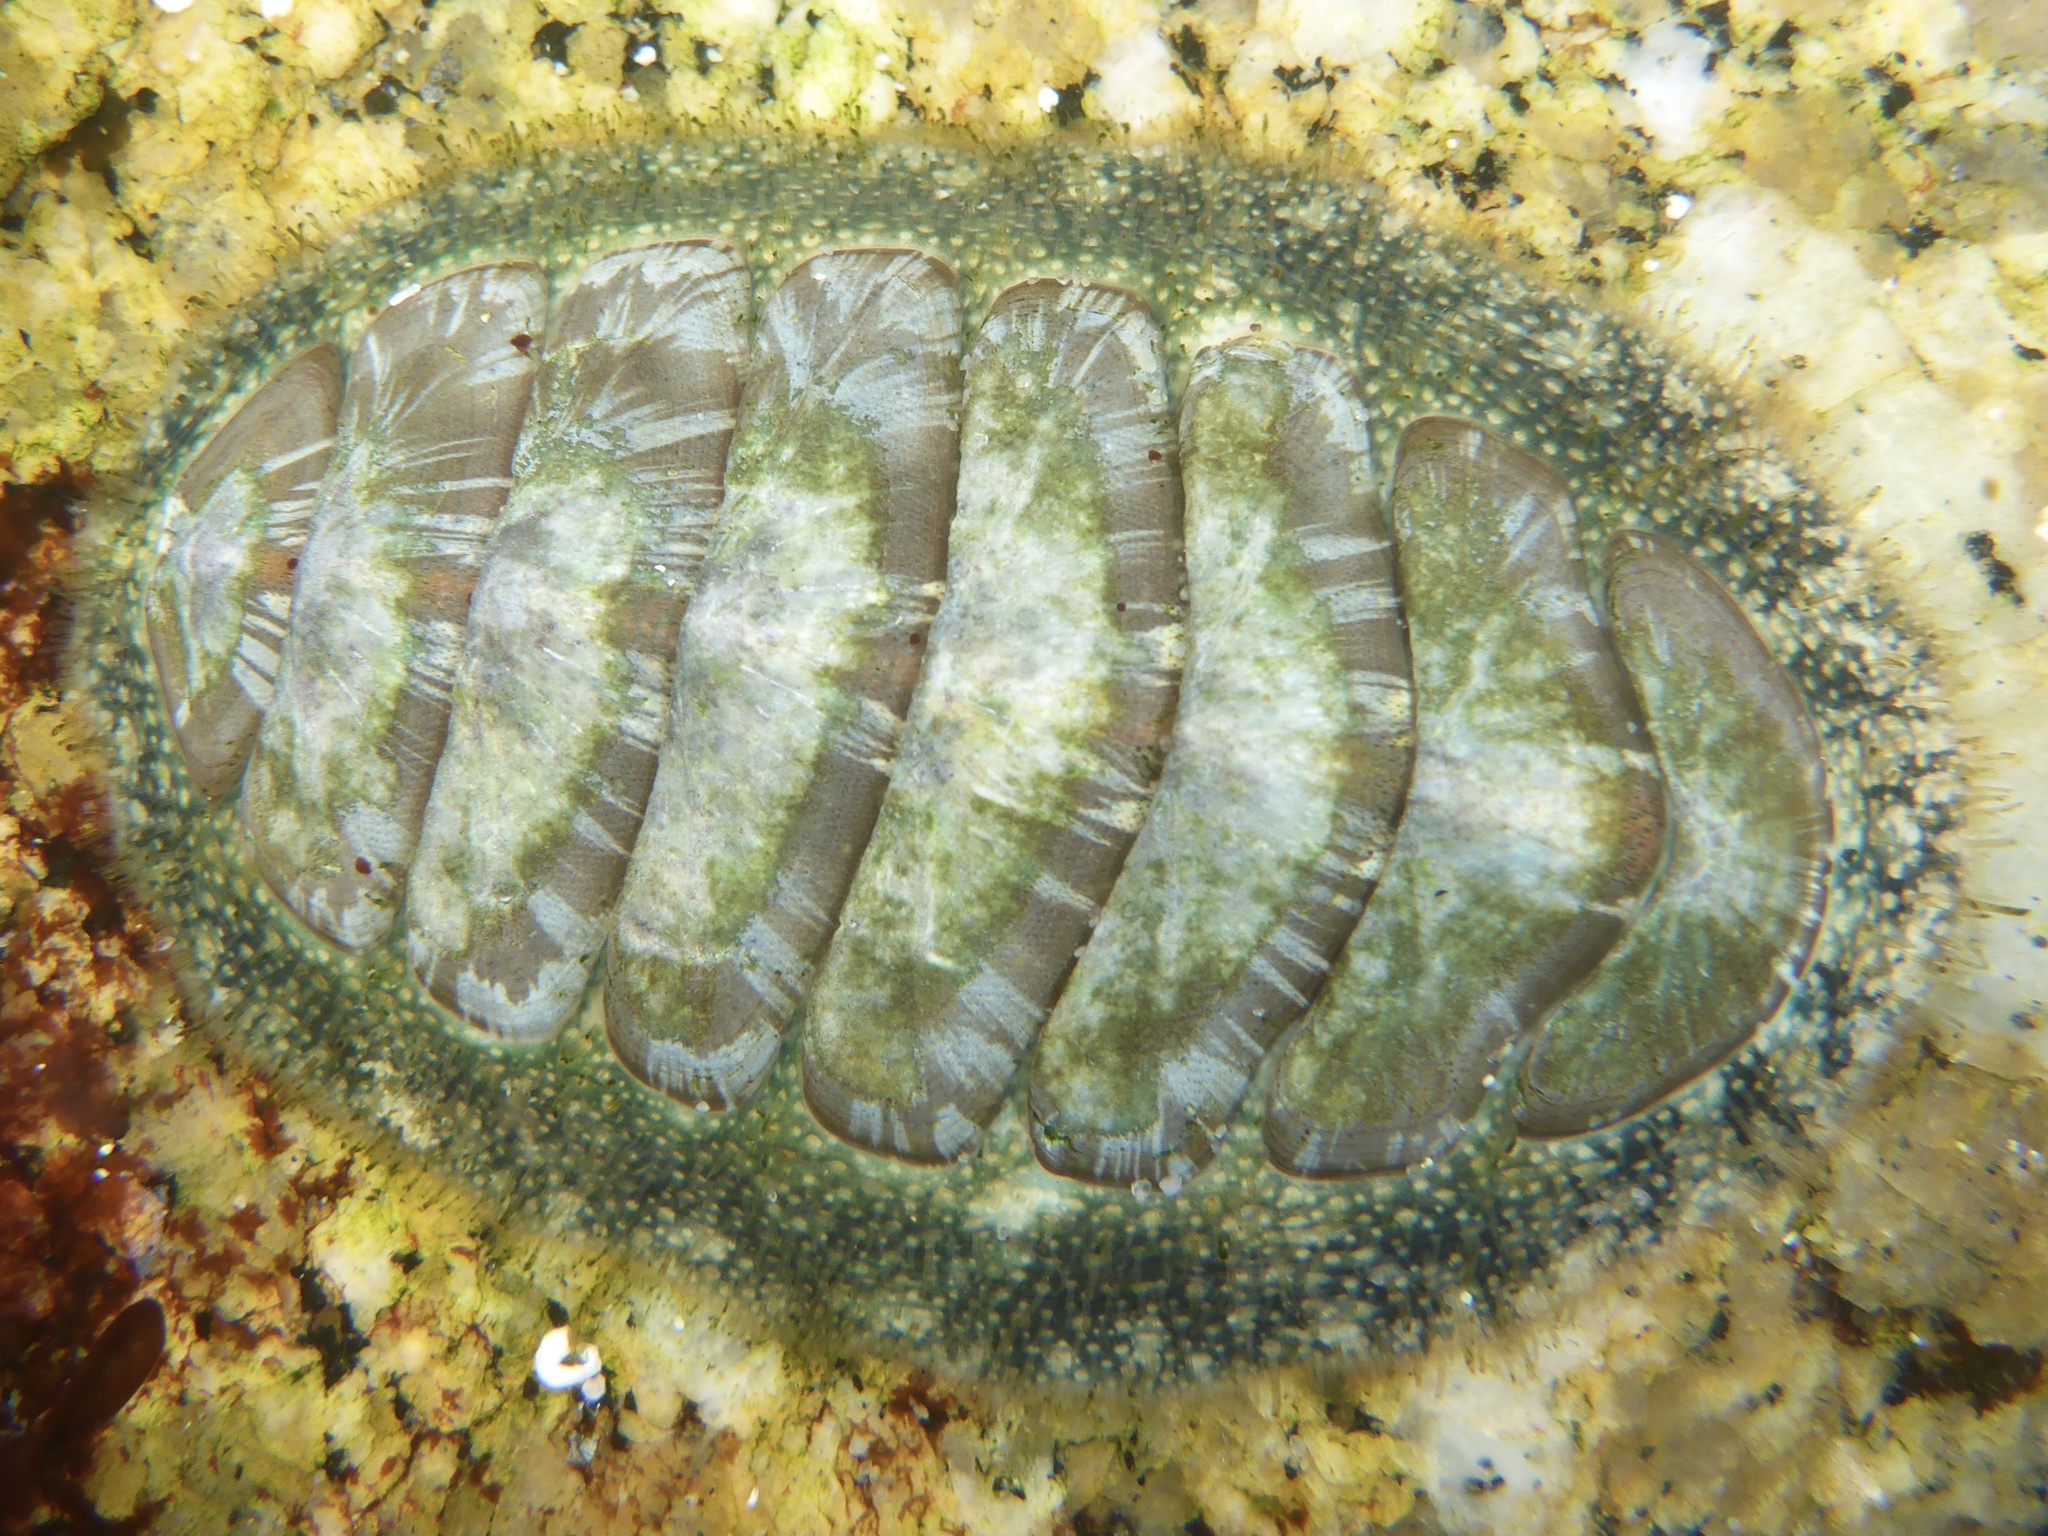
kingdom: Animalia
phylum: Mollusca
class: Polyplacophora
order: Chitonida
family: Mopaliidae
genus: Mopalia
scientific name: Mopalia lignosa
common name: Woody chiton
